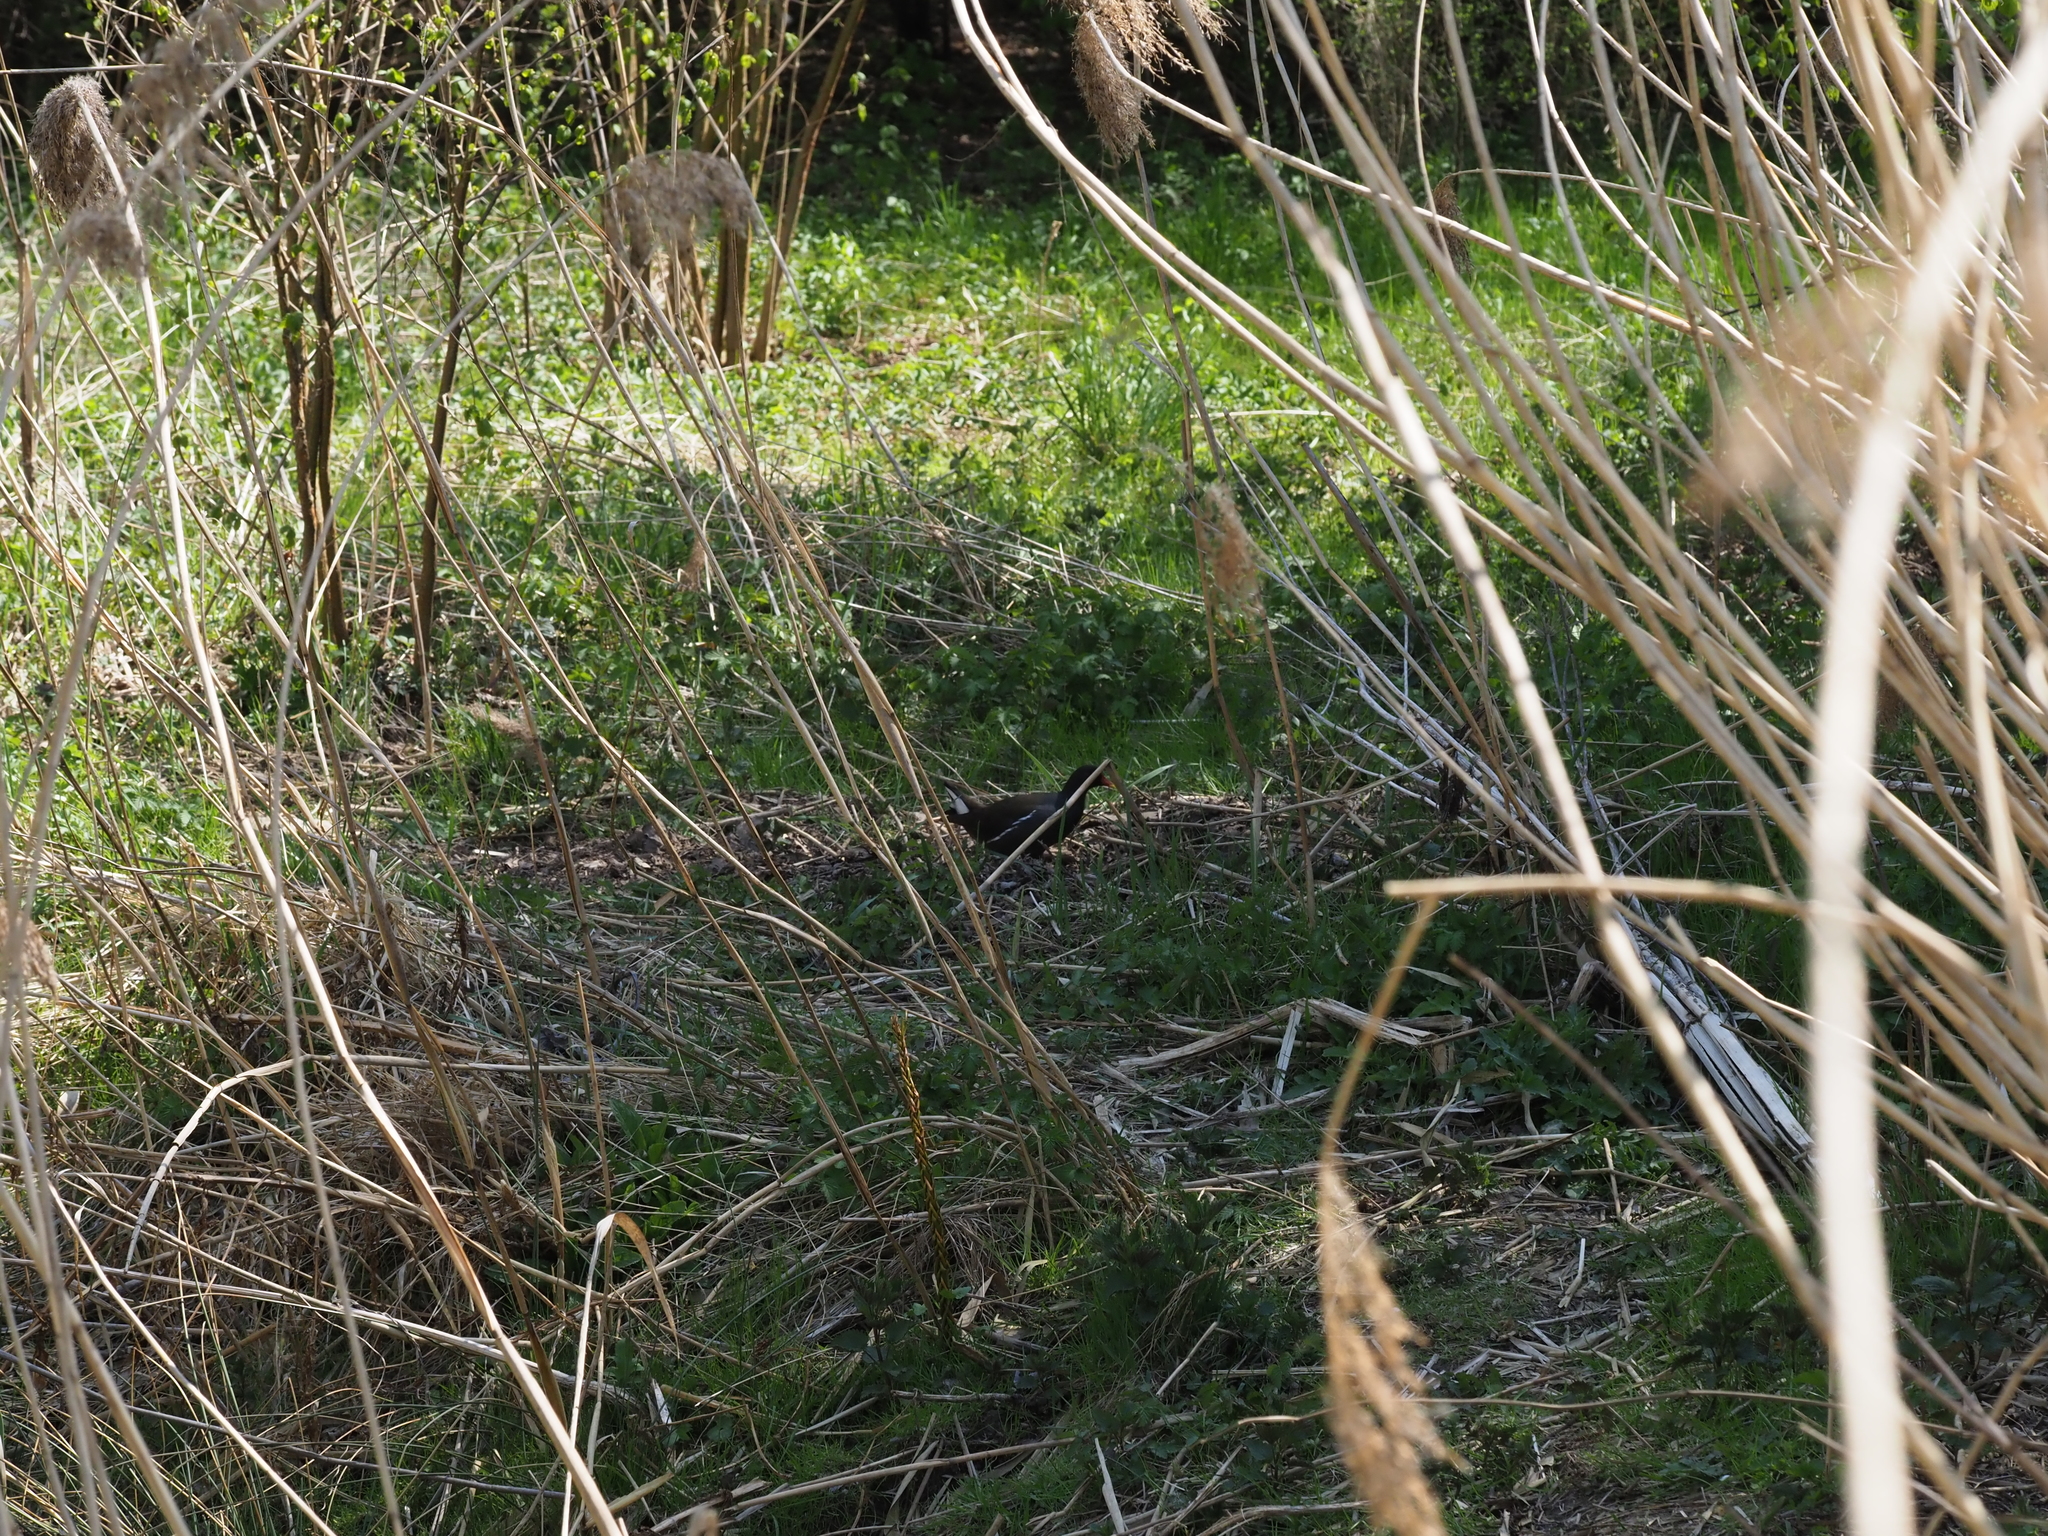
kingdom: Animalia
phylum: Chordata
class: Aves
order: Gruiformes
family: Rallidae
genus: Gallinula
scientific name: Gallinula chloropus
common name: Common moorhen
